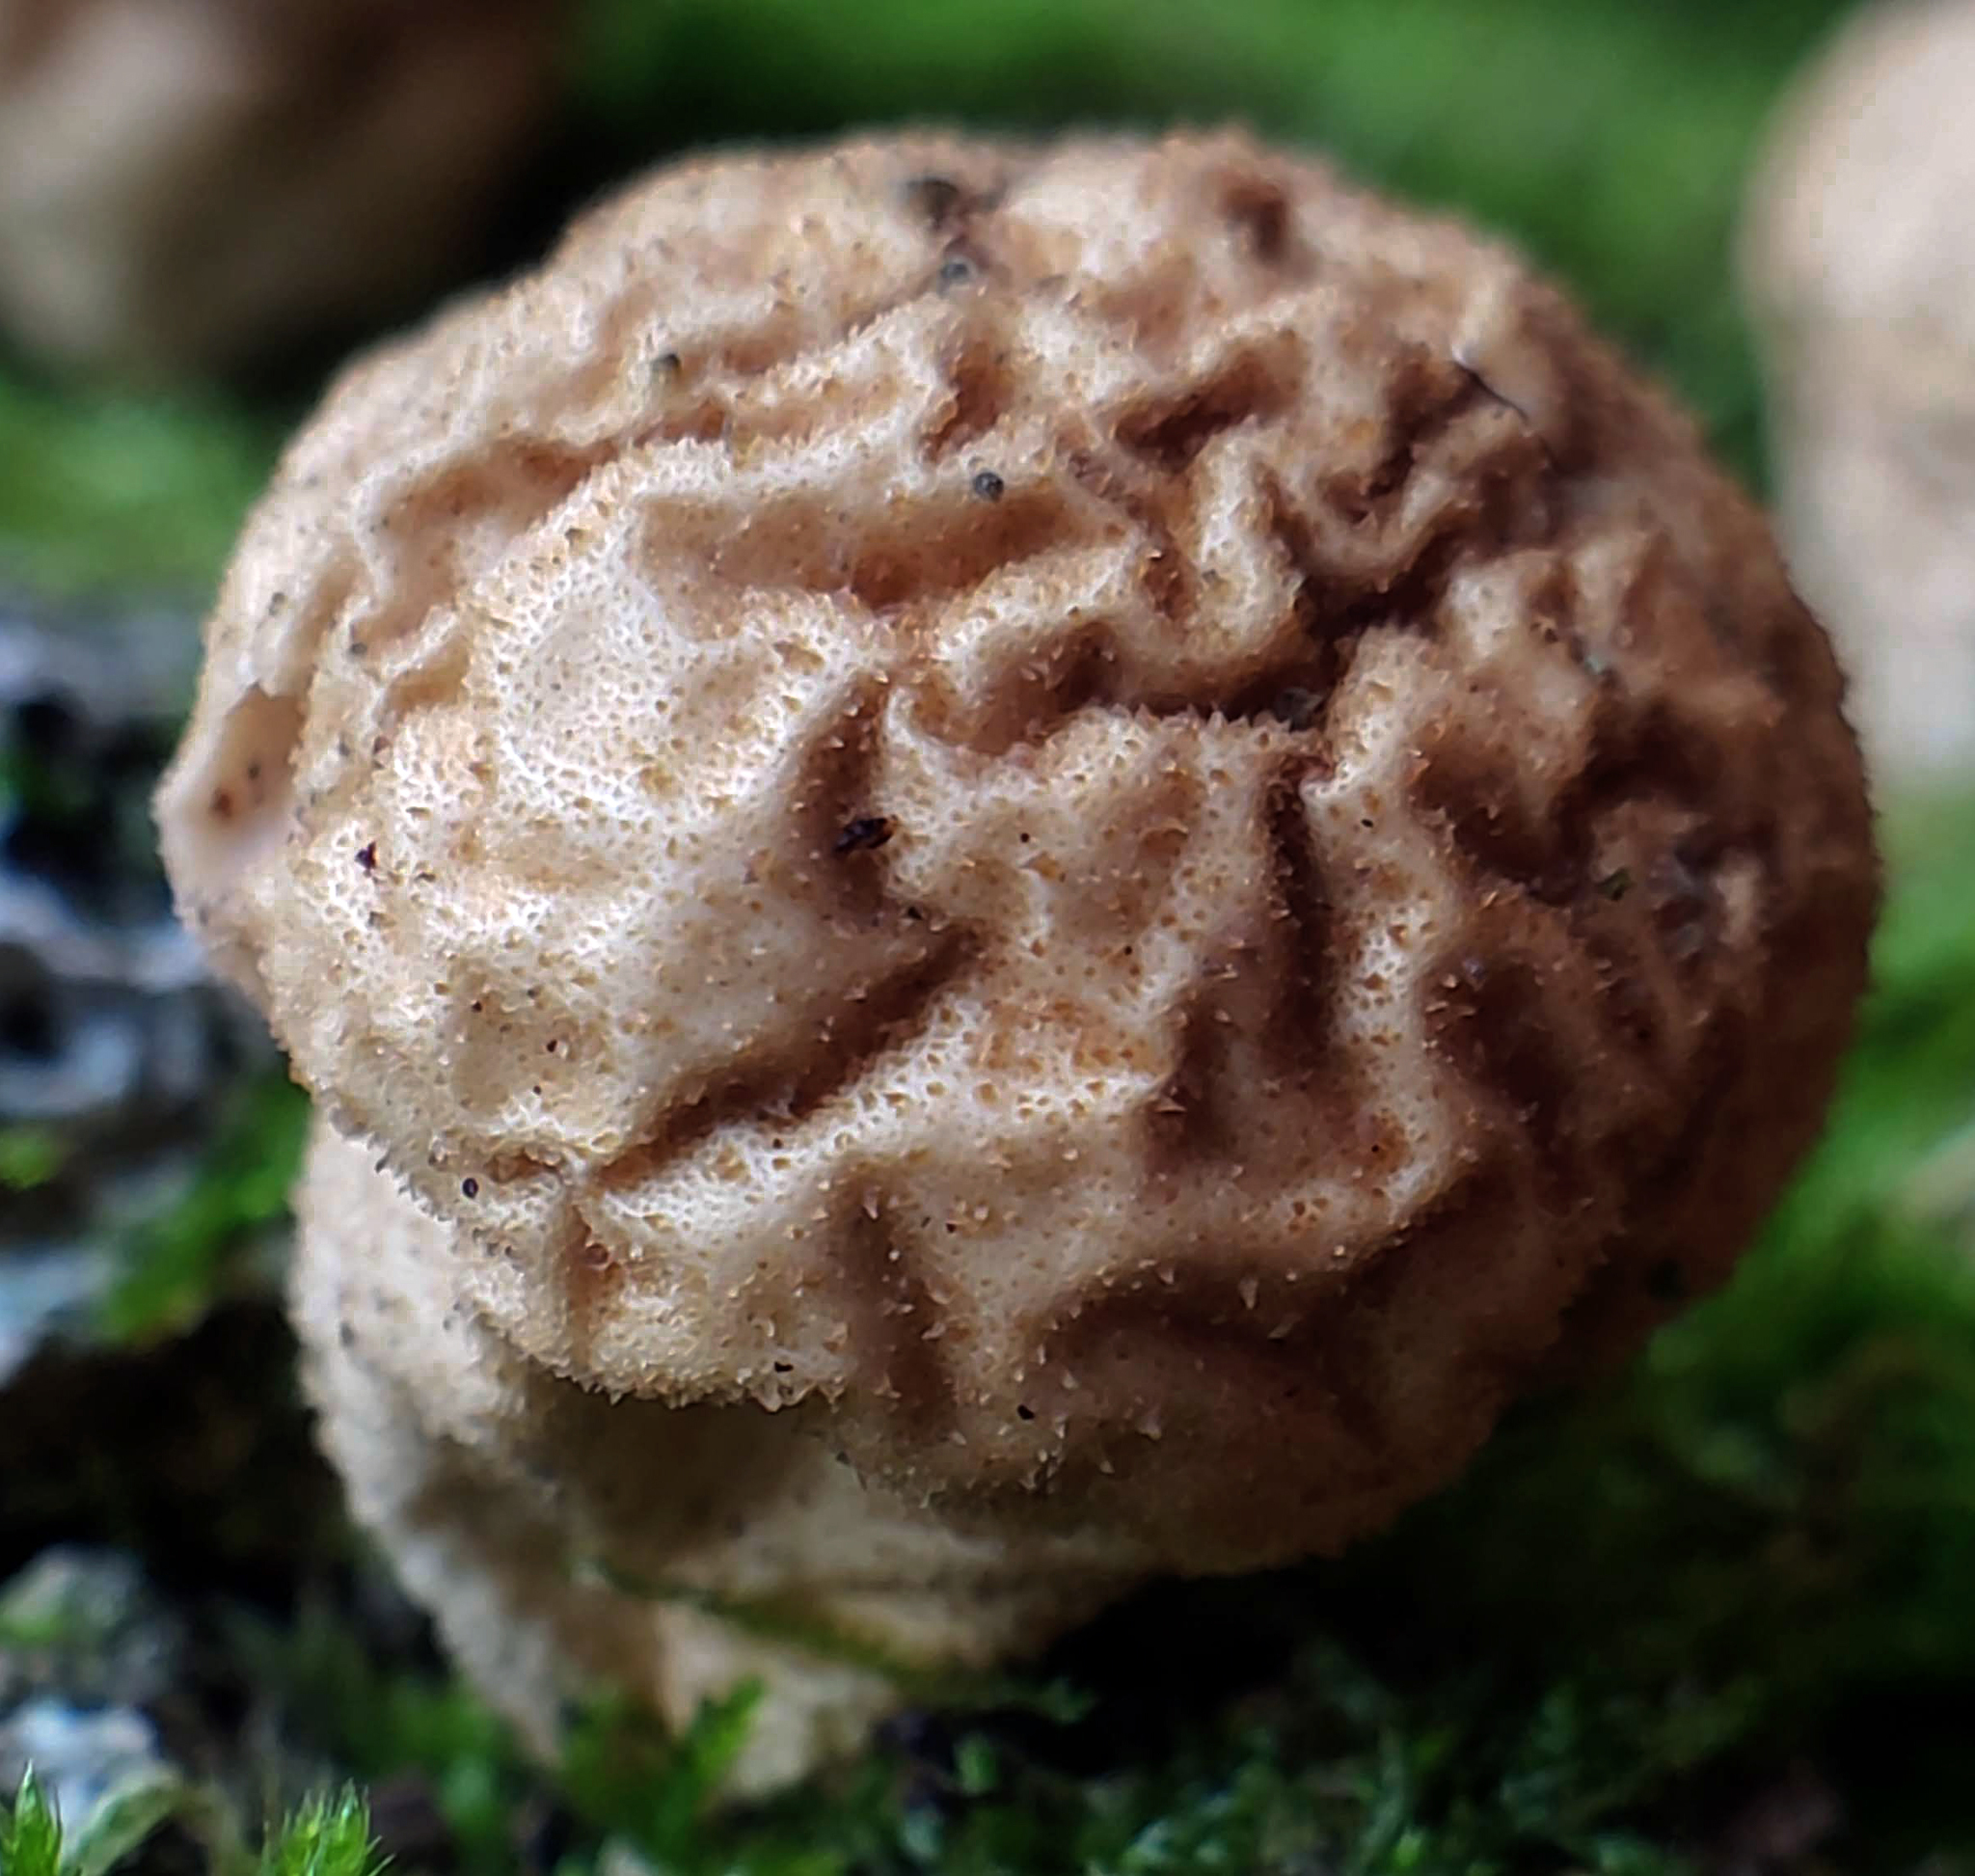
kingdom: Fungi
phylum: Basidiomycota
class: Agaricomycetes
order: Agaricales
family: Lycoperdaceae
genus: Apioperdon
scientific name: Apioperdon pyriforme
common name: Pear-shaped puffball
